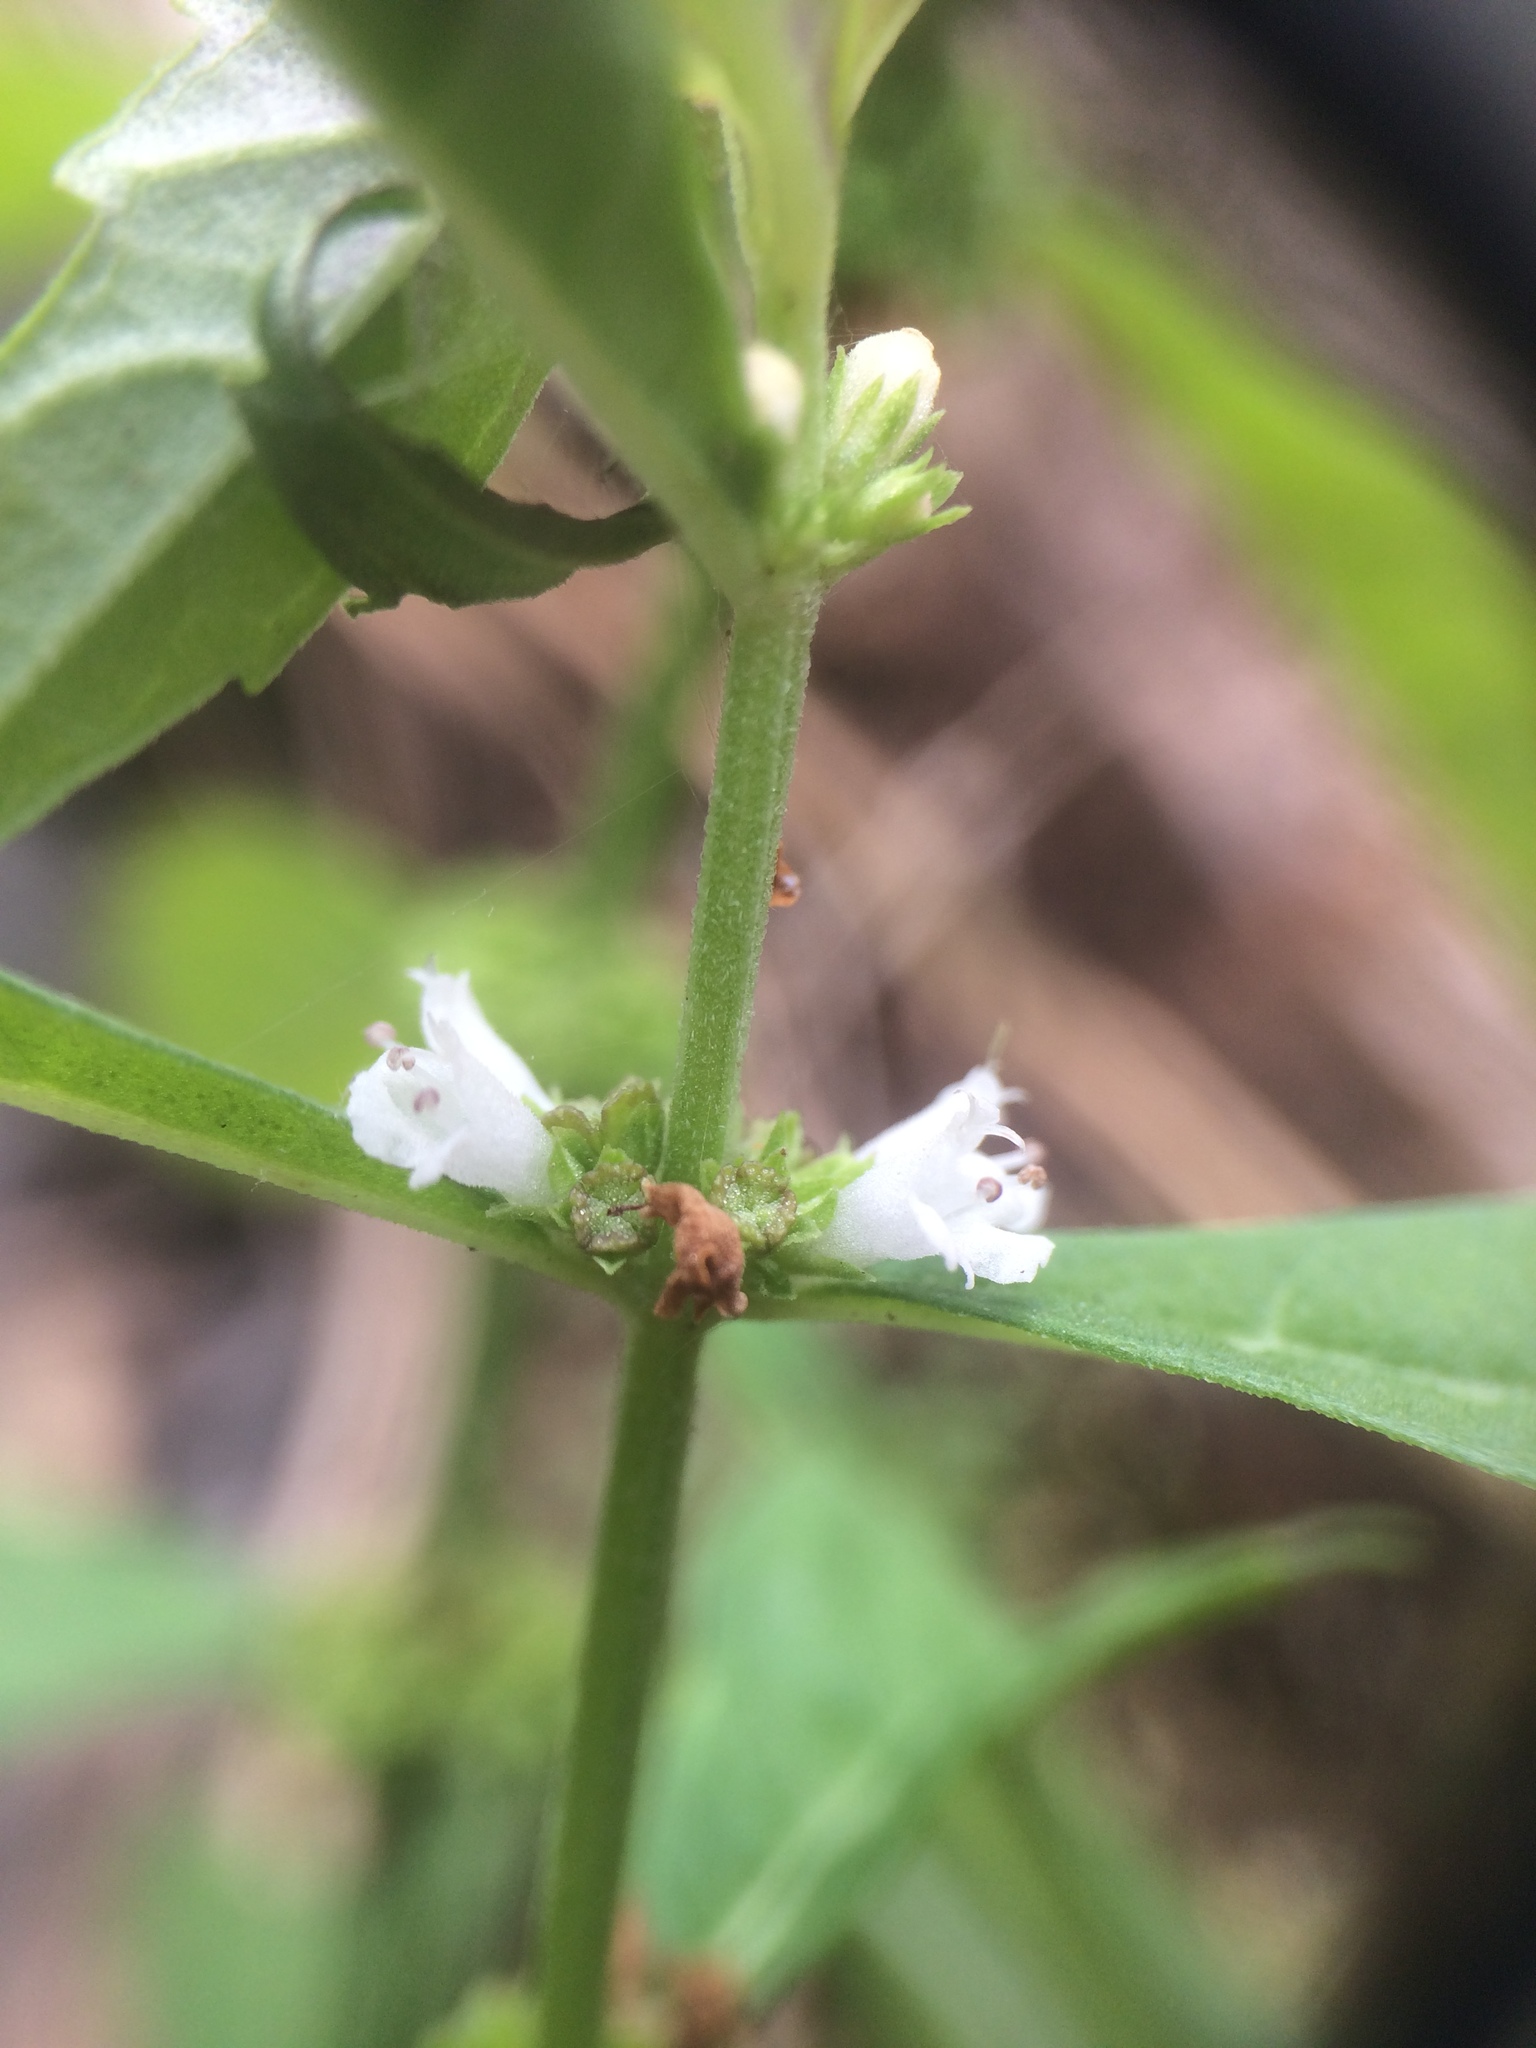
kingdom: Plantae
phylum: Tracheophyta
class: Magnoliopsida
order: Lamiales
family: Lamiaceae
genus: Lycopus
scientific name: Lycopus uniflorus
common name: Northern bugleweed
